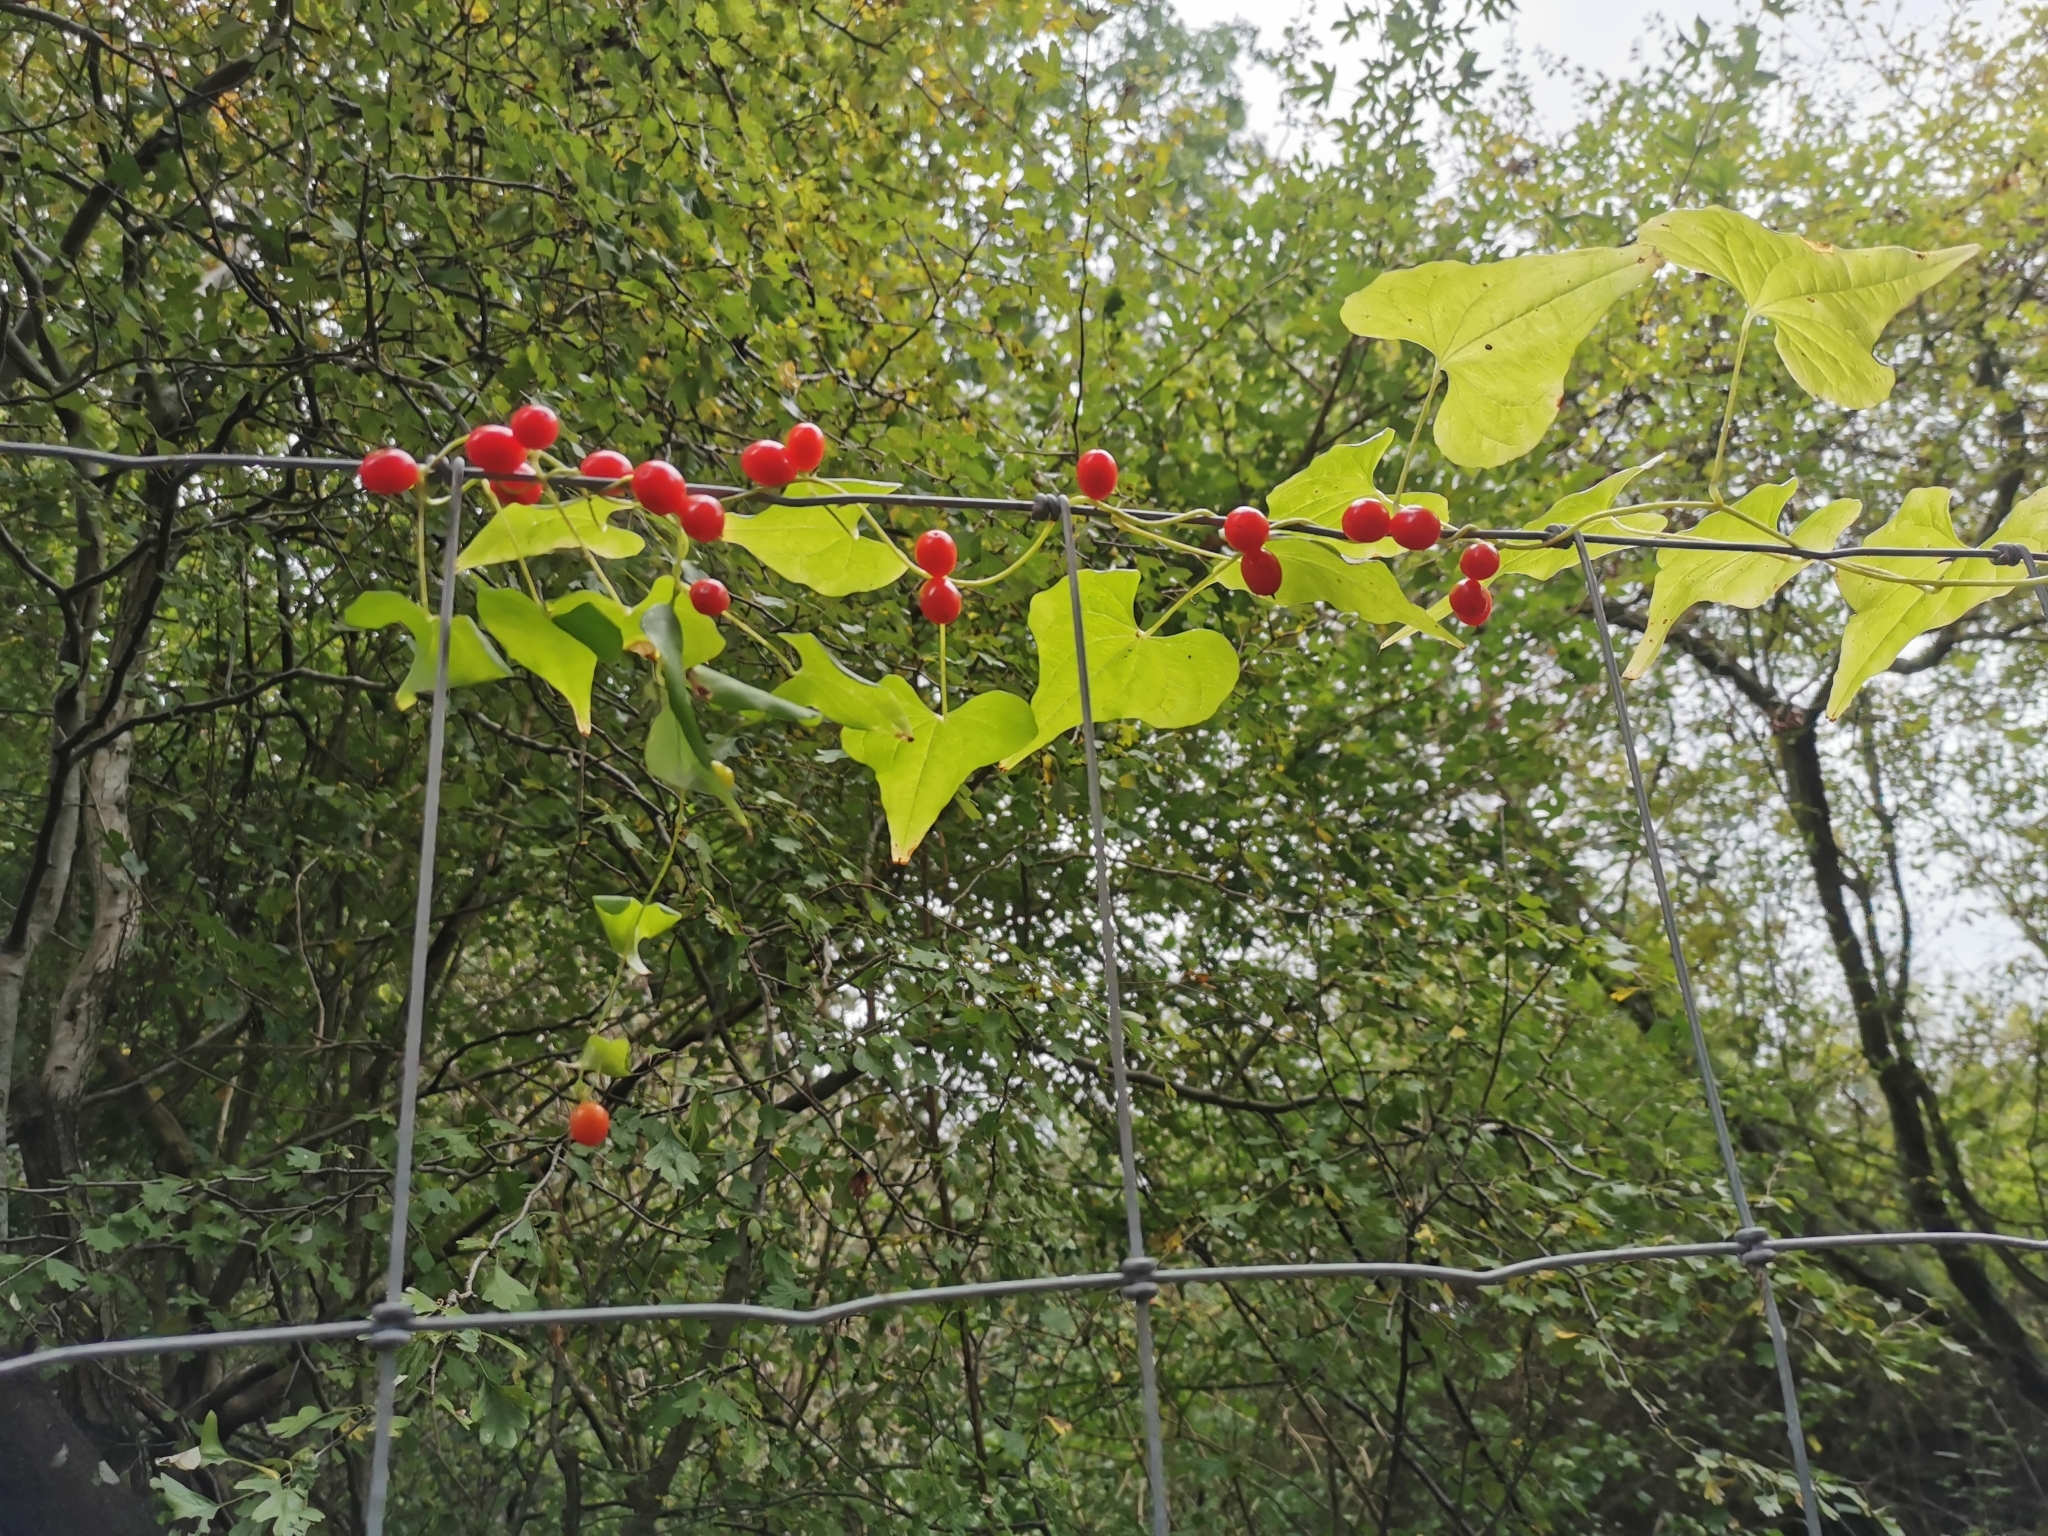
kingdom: Plantae
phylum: Tracheophyta
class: Liliopsida
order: Dioscoreales
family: Dioscoreaceae
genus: Dioscorea
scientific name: Dioscorea communis
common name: Black-bindweed
